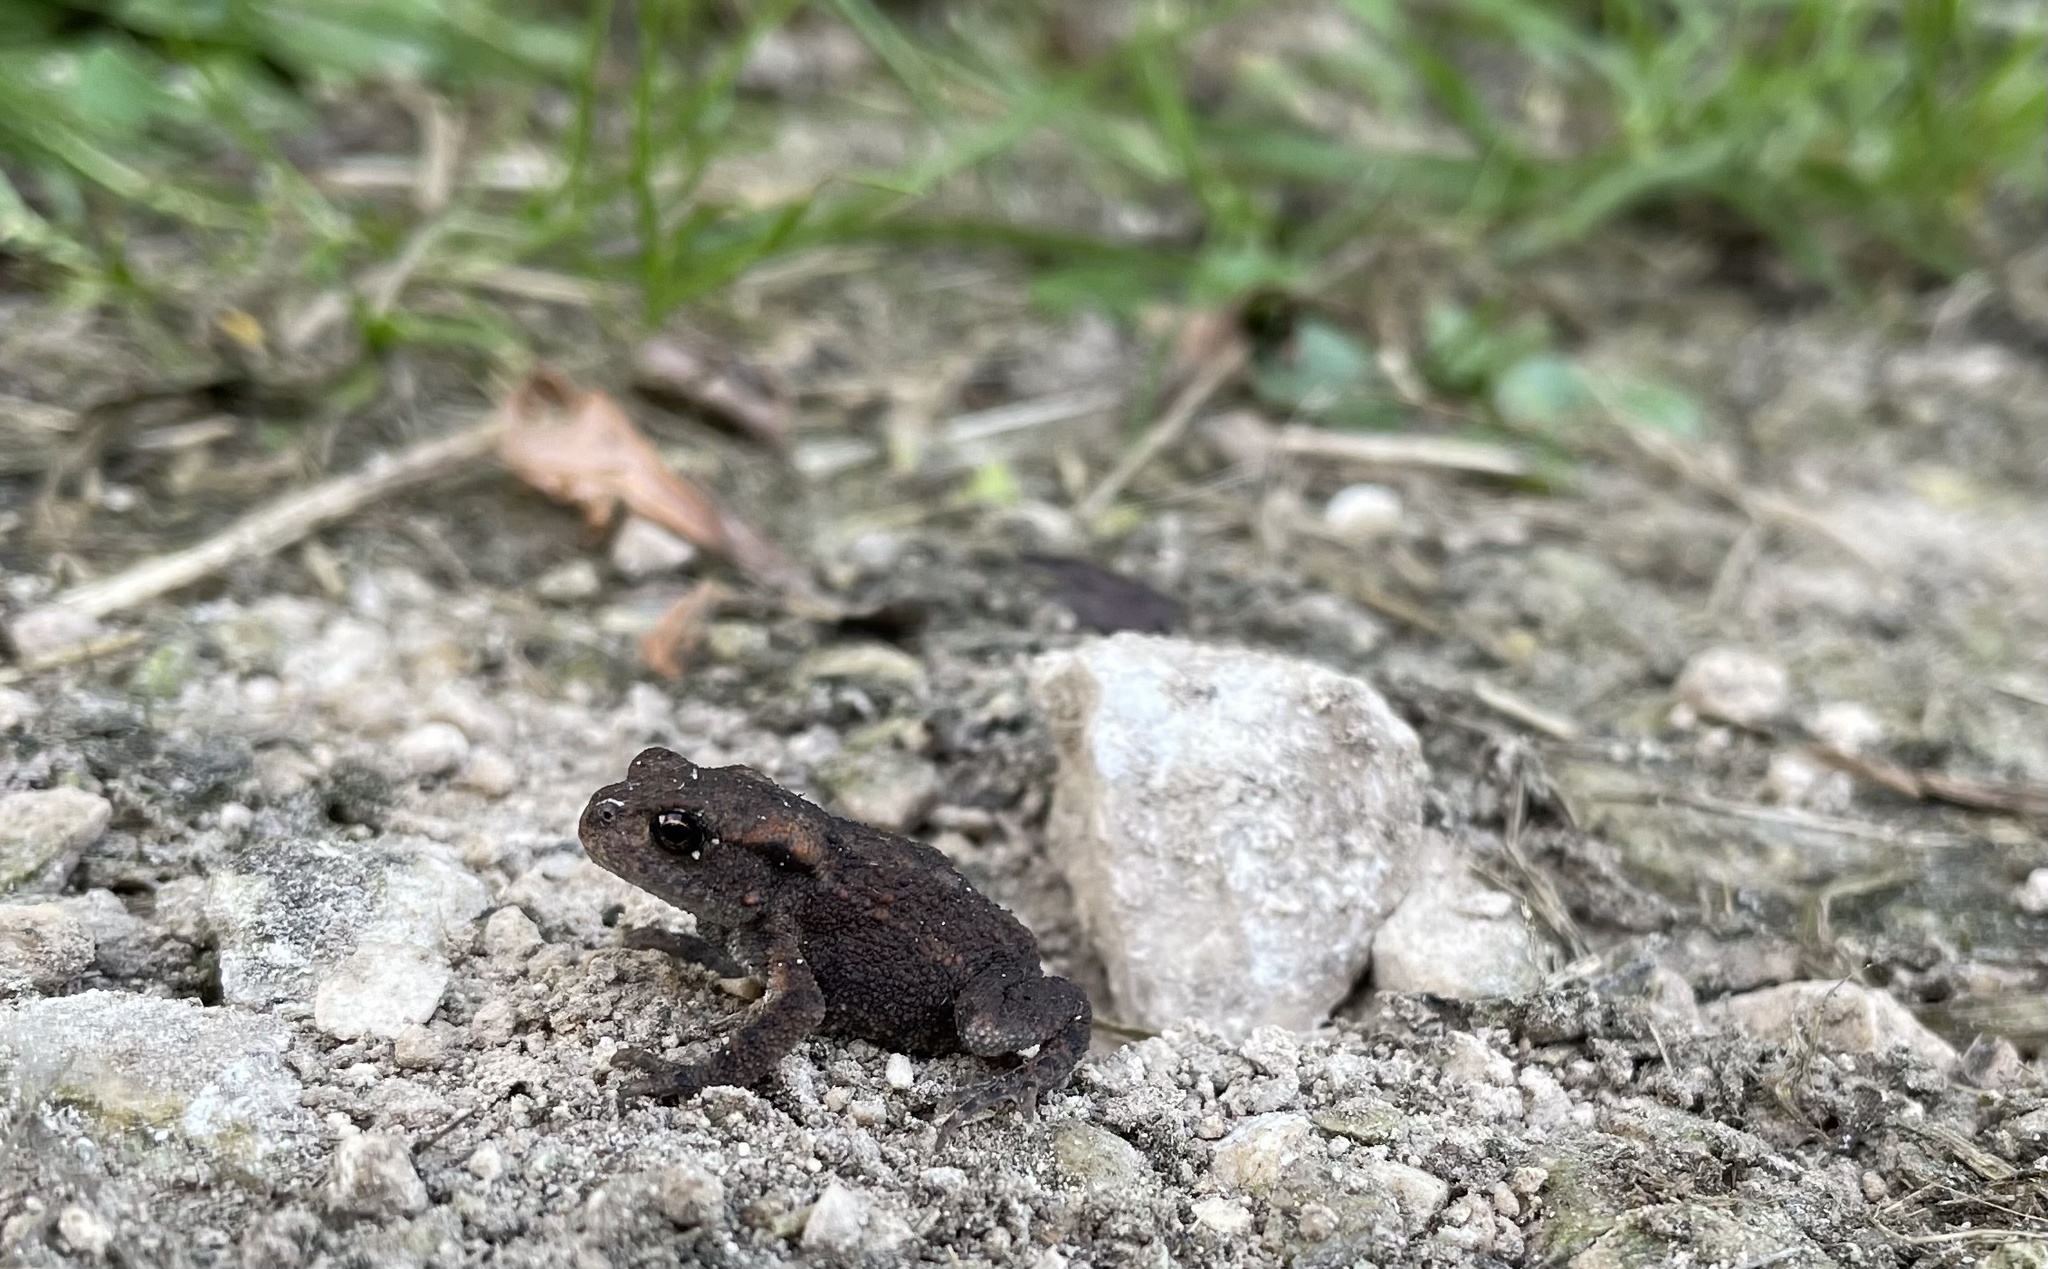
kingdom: Animalia
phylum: Chordata
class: Amphibia
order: Anura
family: Bufonidae
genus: Bufo
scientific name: Bufo bufo
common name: Common toad
